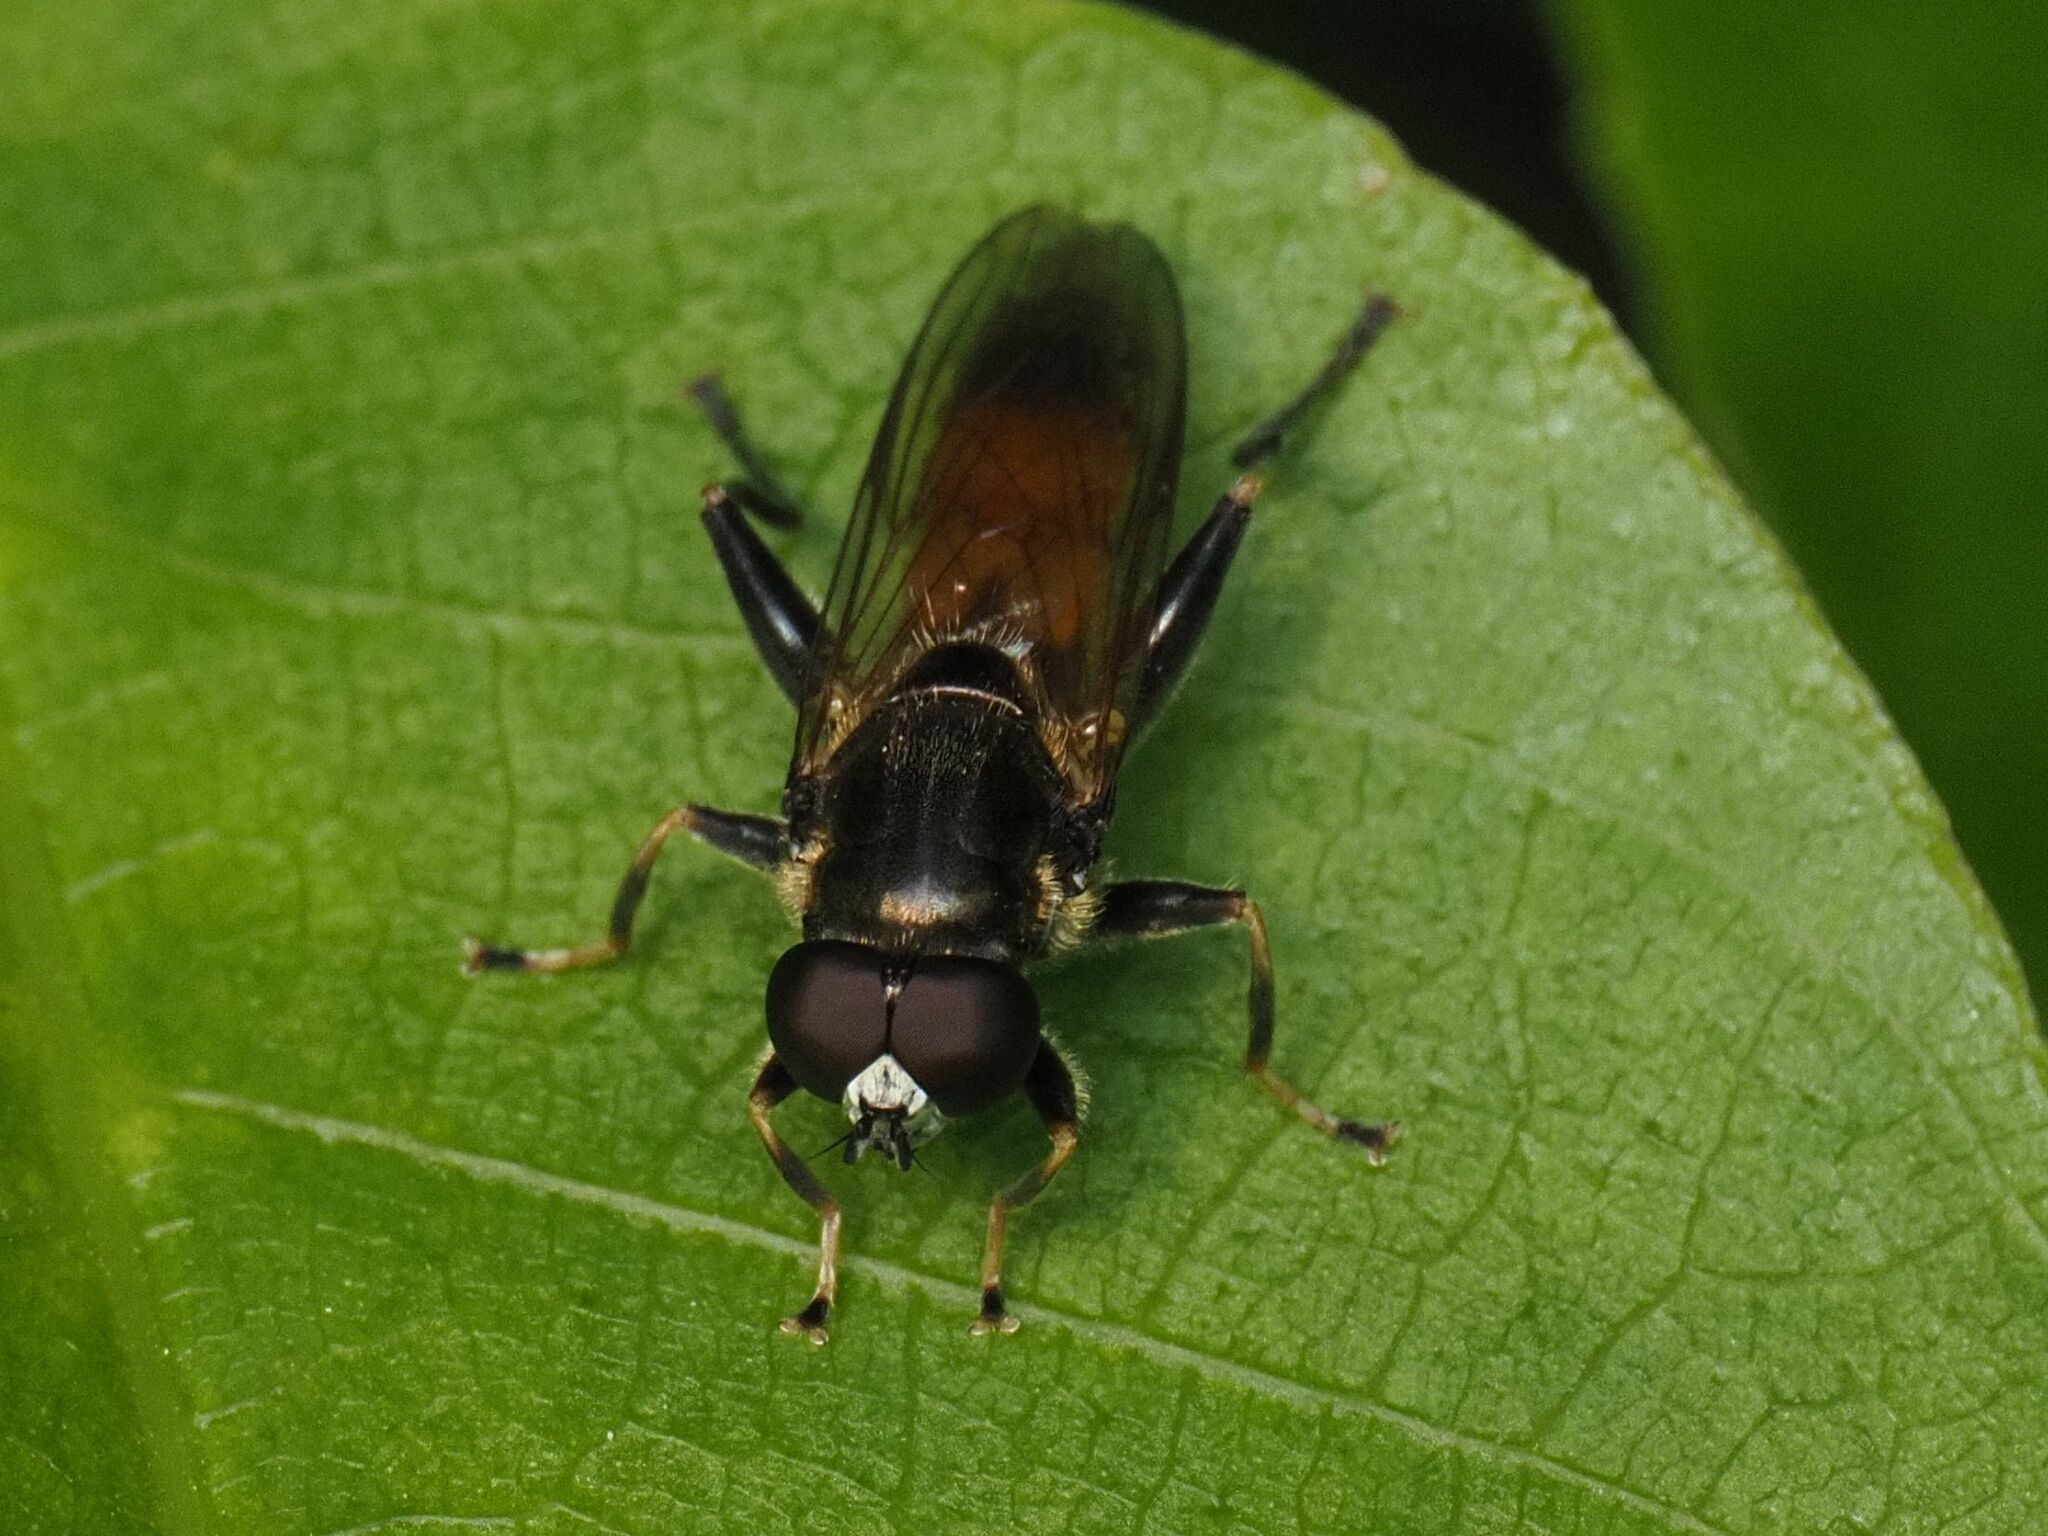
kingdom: Animalia
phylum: Arthropoda
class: Insecta
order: Diptera
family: Syrphidae
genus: Xylota
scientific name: Xylota segnis
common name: Brown-toed forest fly
